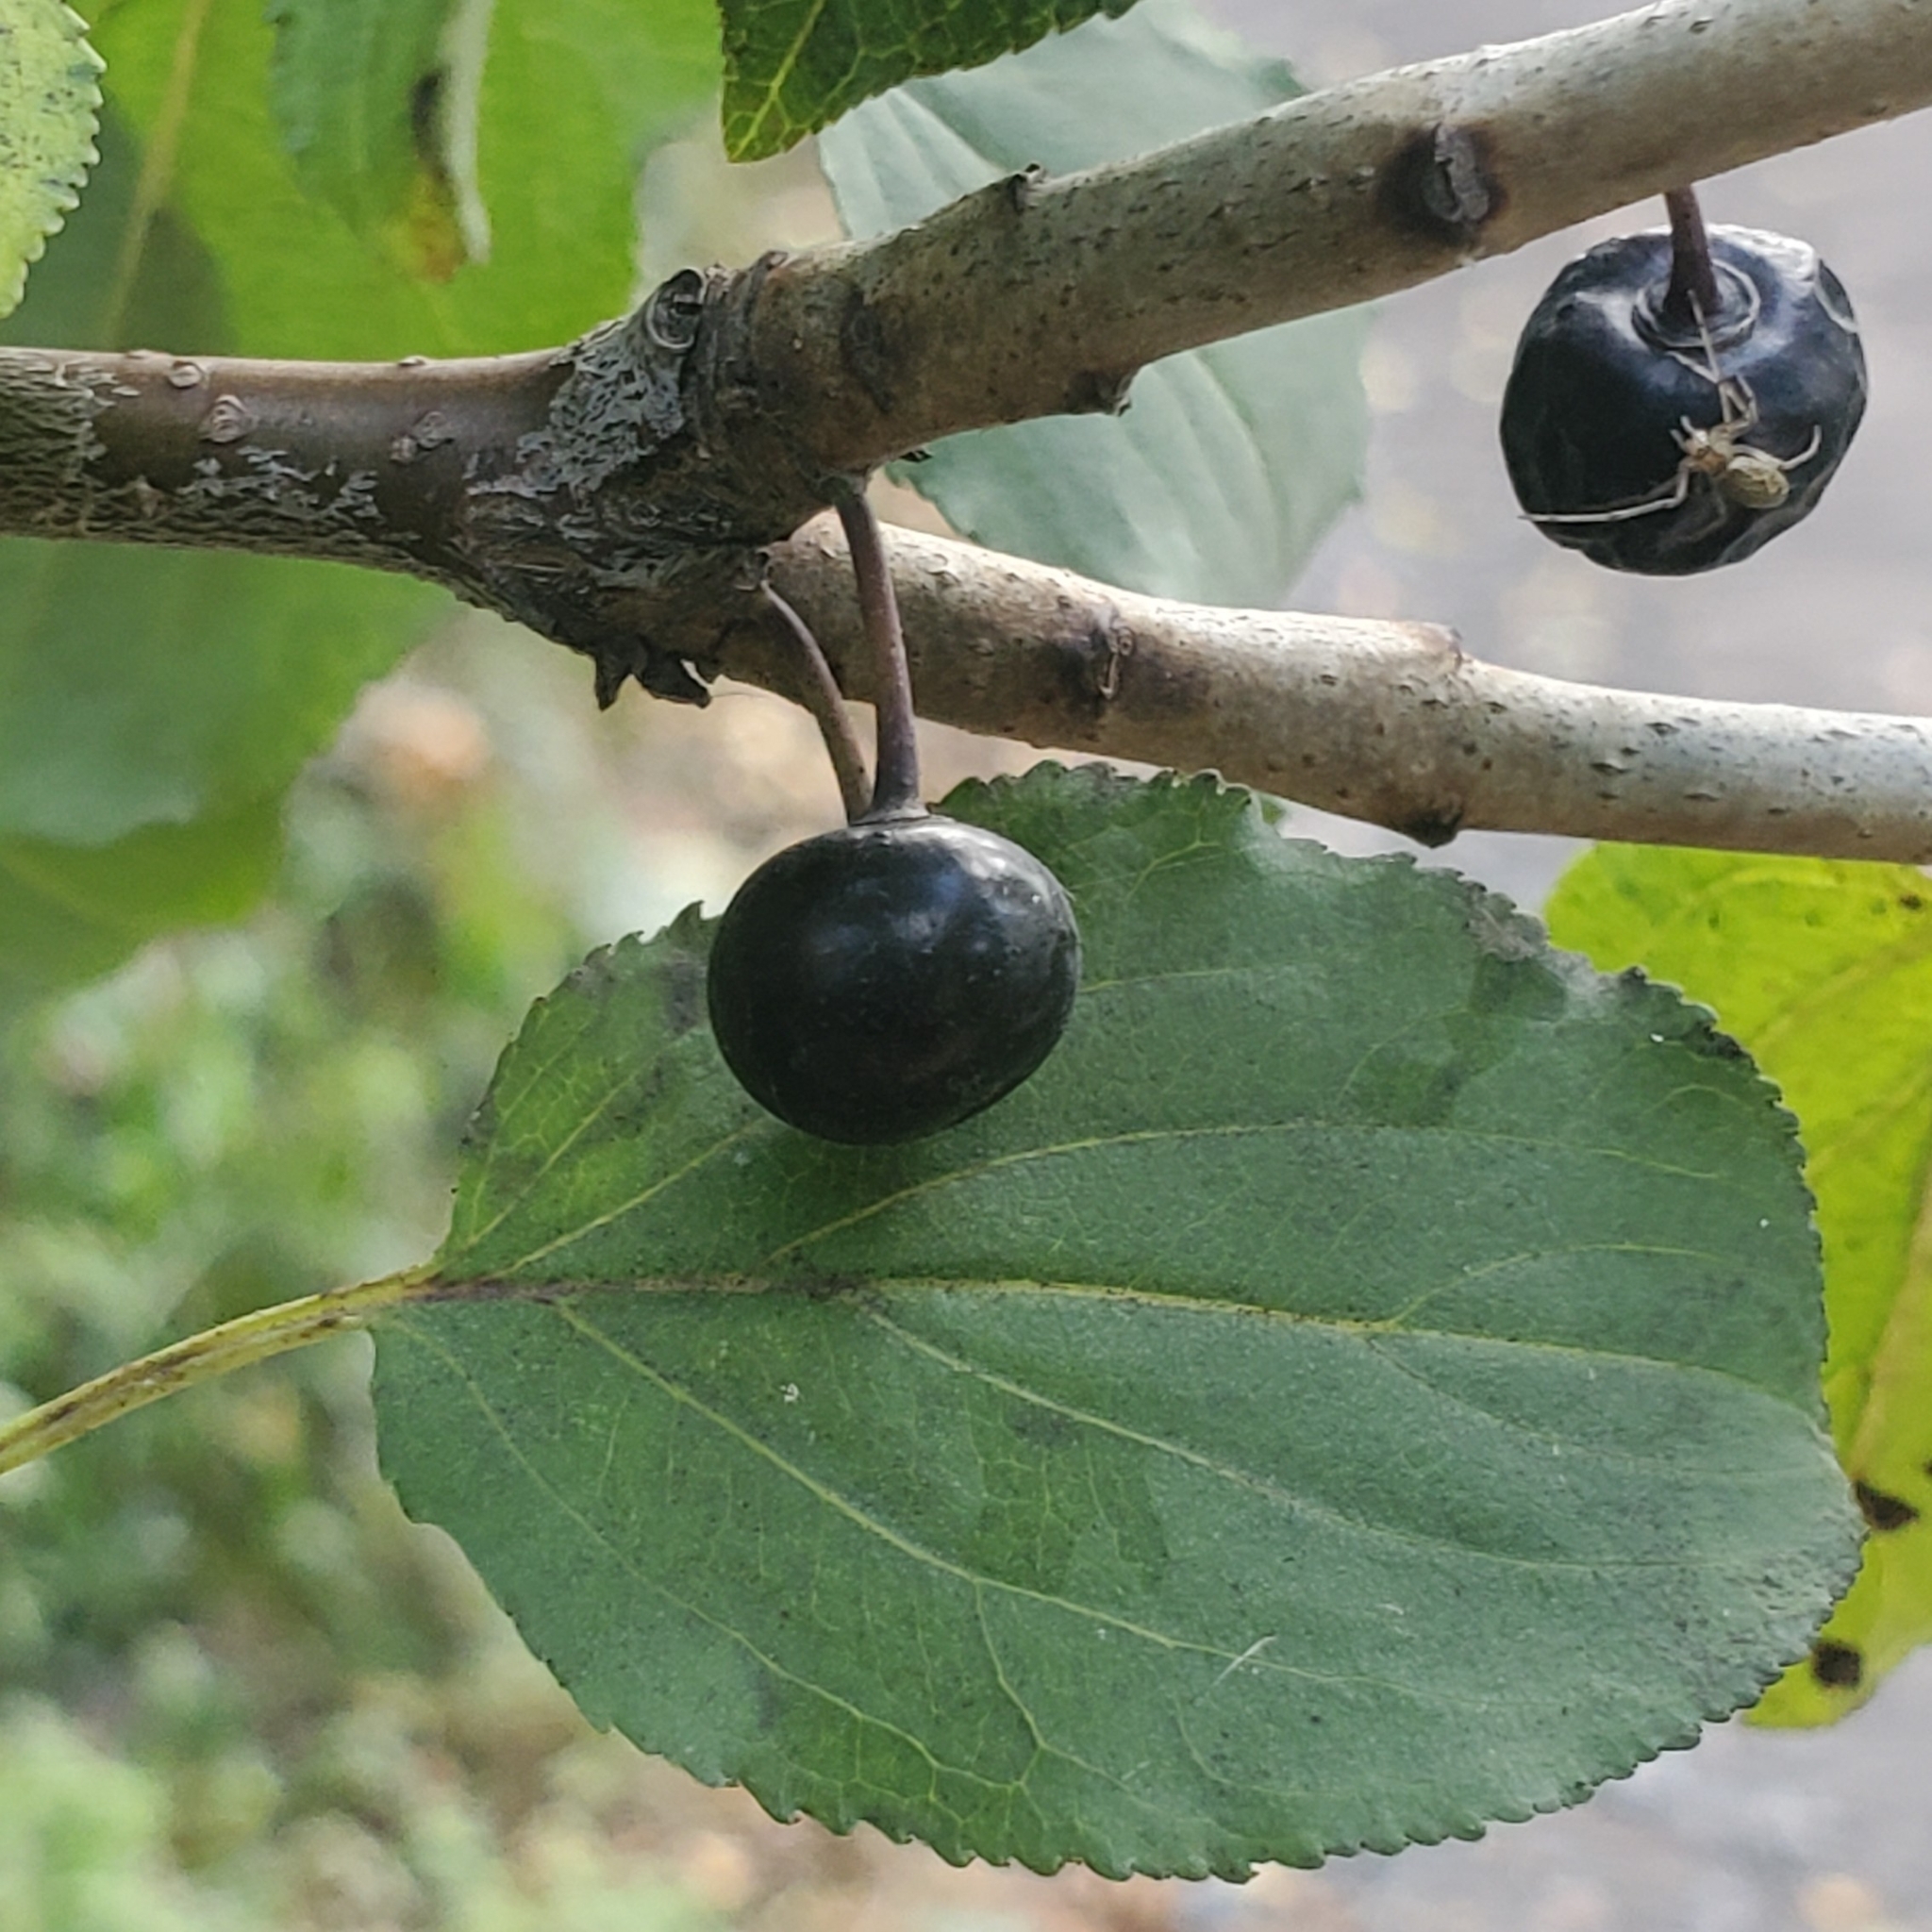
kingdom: Plantae
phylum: Tracheophyta
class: Magnoliopsida
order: Rosales
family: Rhamnaceae
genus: Rhamnus
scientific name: Rhamnus cathartica
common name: Common buckthorn
